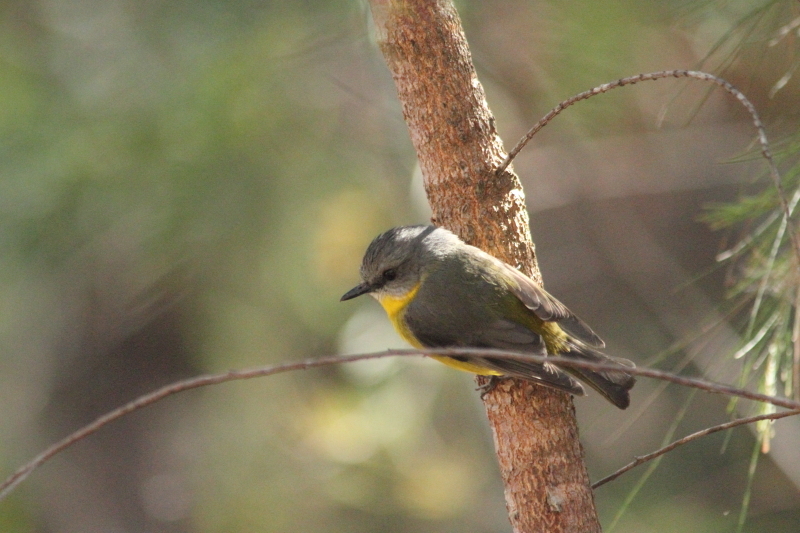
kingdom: Animalia
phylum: Chordata
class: Aves
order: Passeriformes
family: Petroicidae
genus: Eopsaltria
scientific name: Eopsaltria australis
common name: Eastern yellow robin
